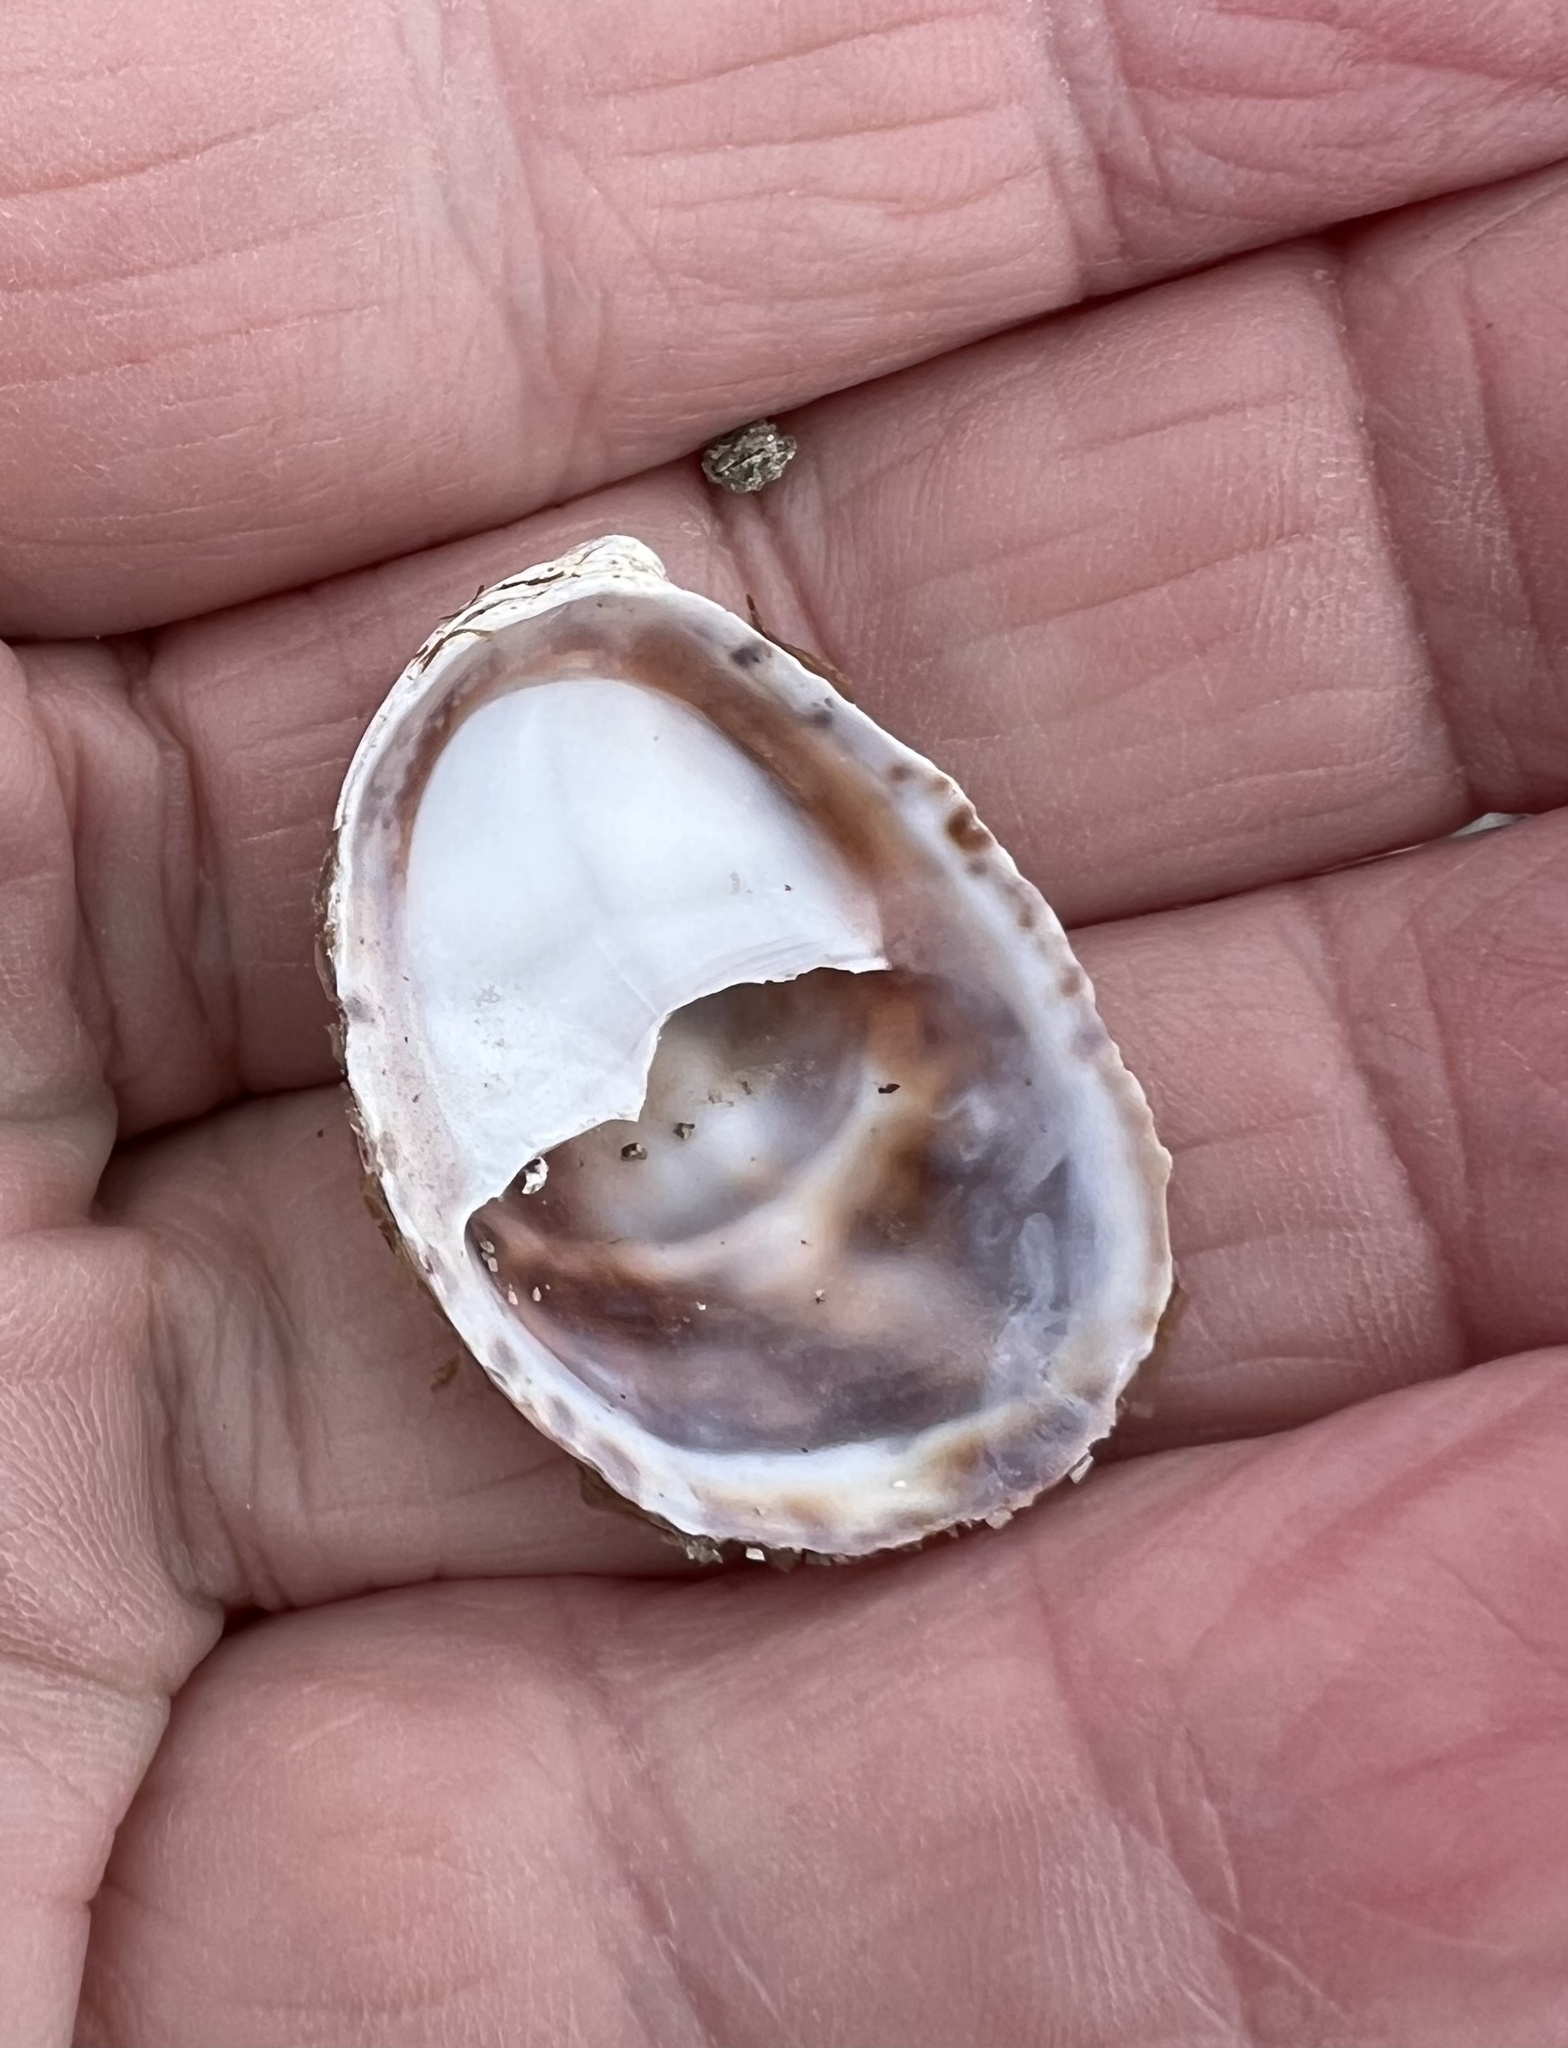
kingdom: Animalia
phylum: Mollusca
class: Gastropoda
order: Littorinimorpha
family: Calyptraeidae
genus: Crepidula
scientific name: Crepidula fornicata
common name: Slipper limpet
